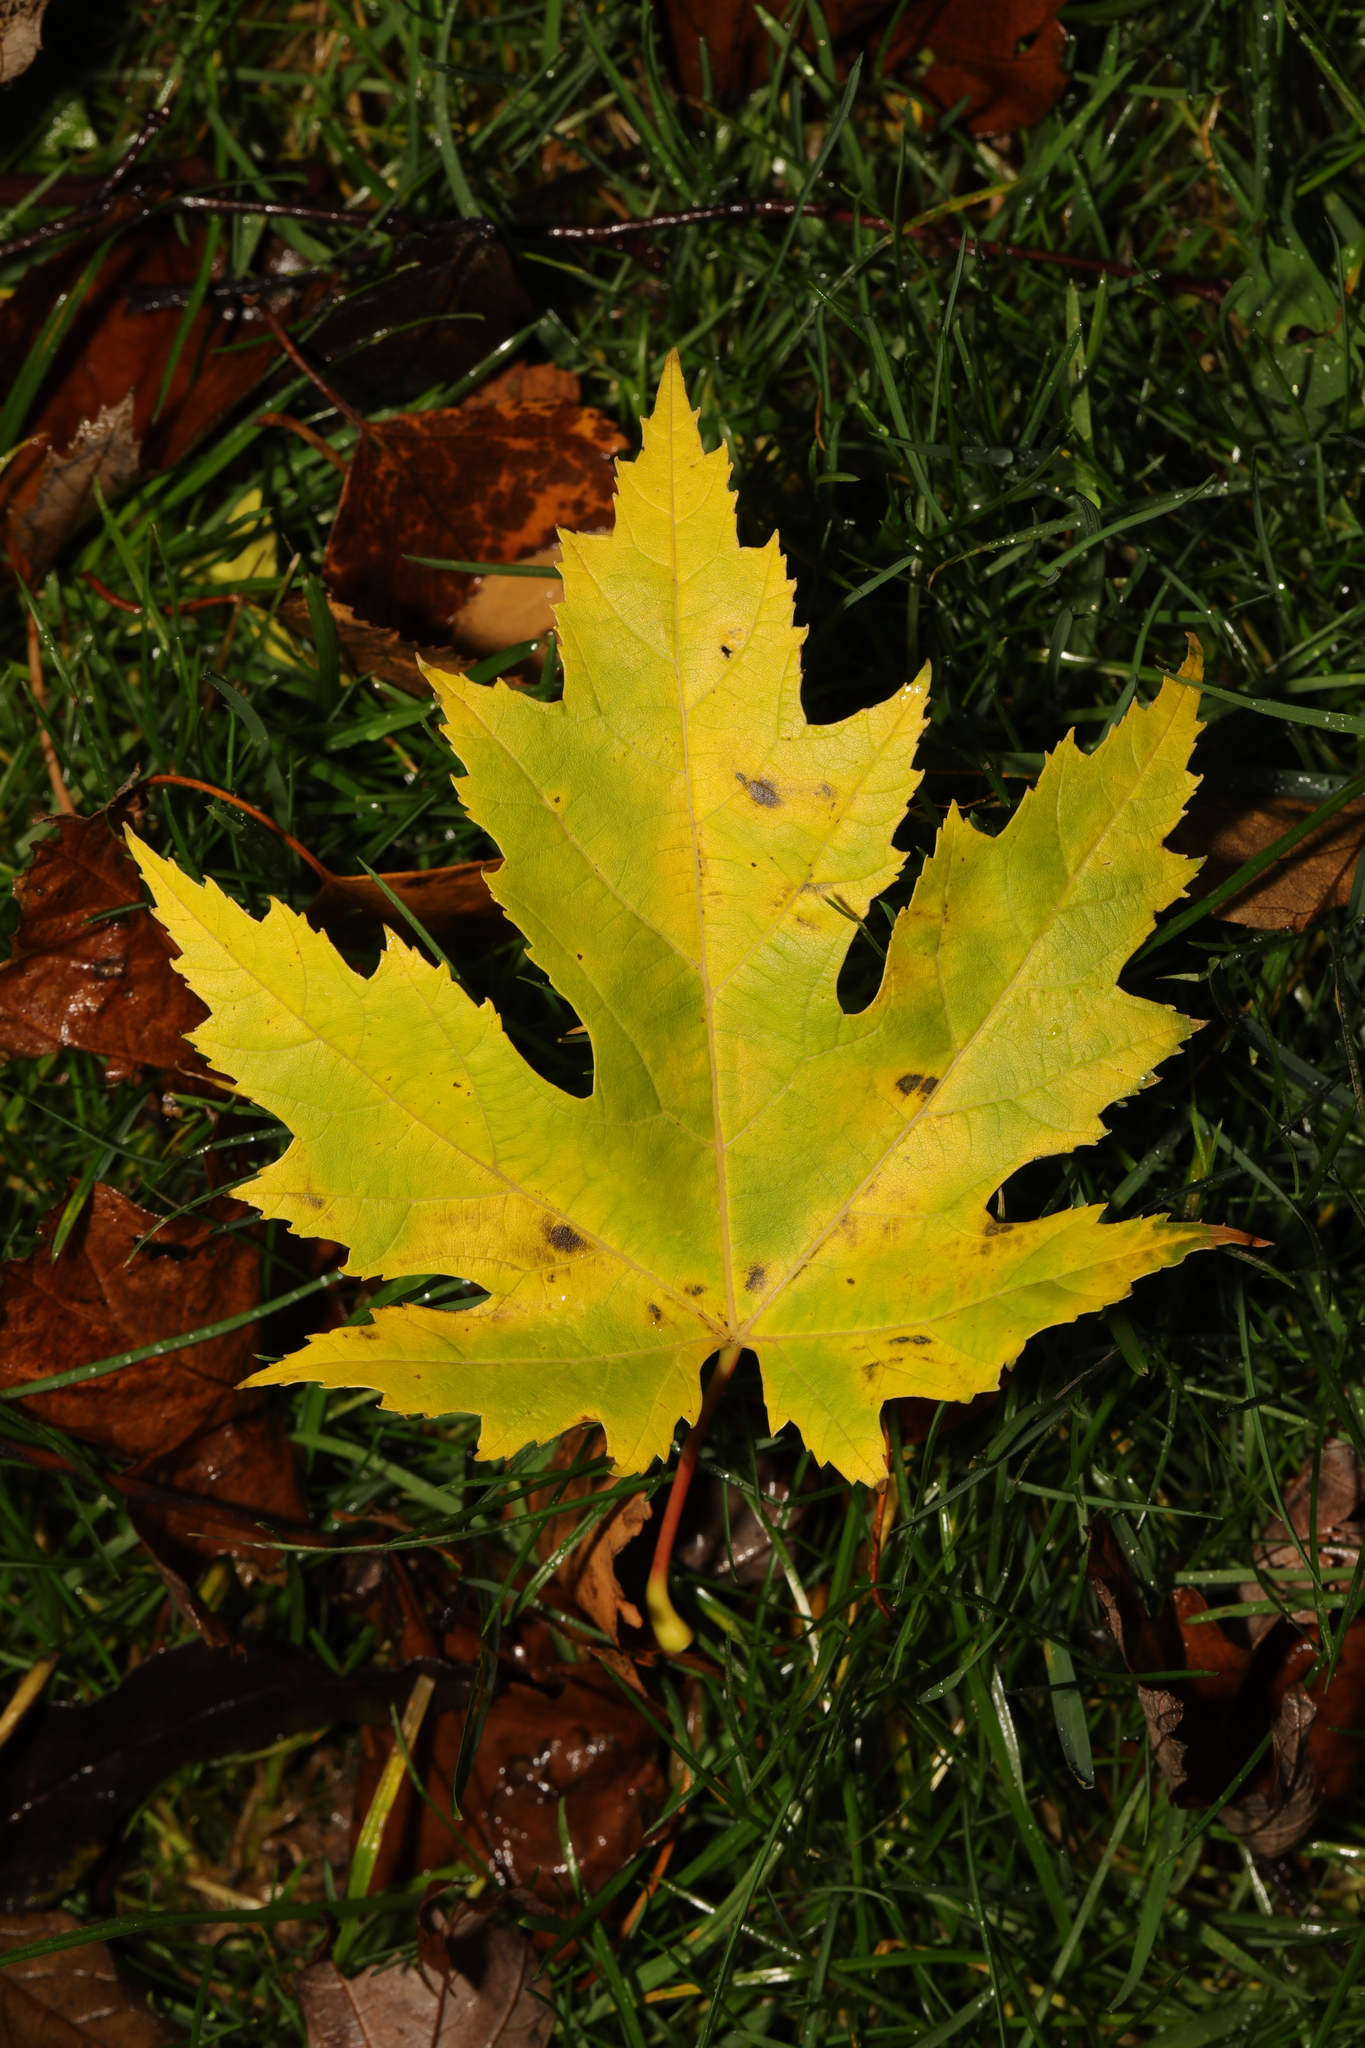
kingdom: Plantae
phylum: Tracheophyta
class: Magnoliopsida
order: Sapindales
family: Sapindaceae
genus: Acer
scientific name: Acer saccharinum
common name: Silver maple
